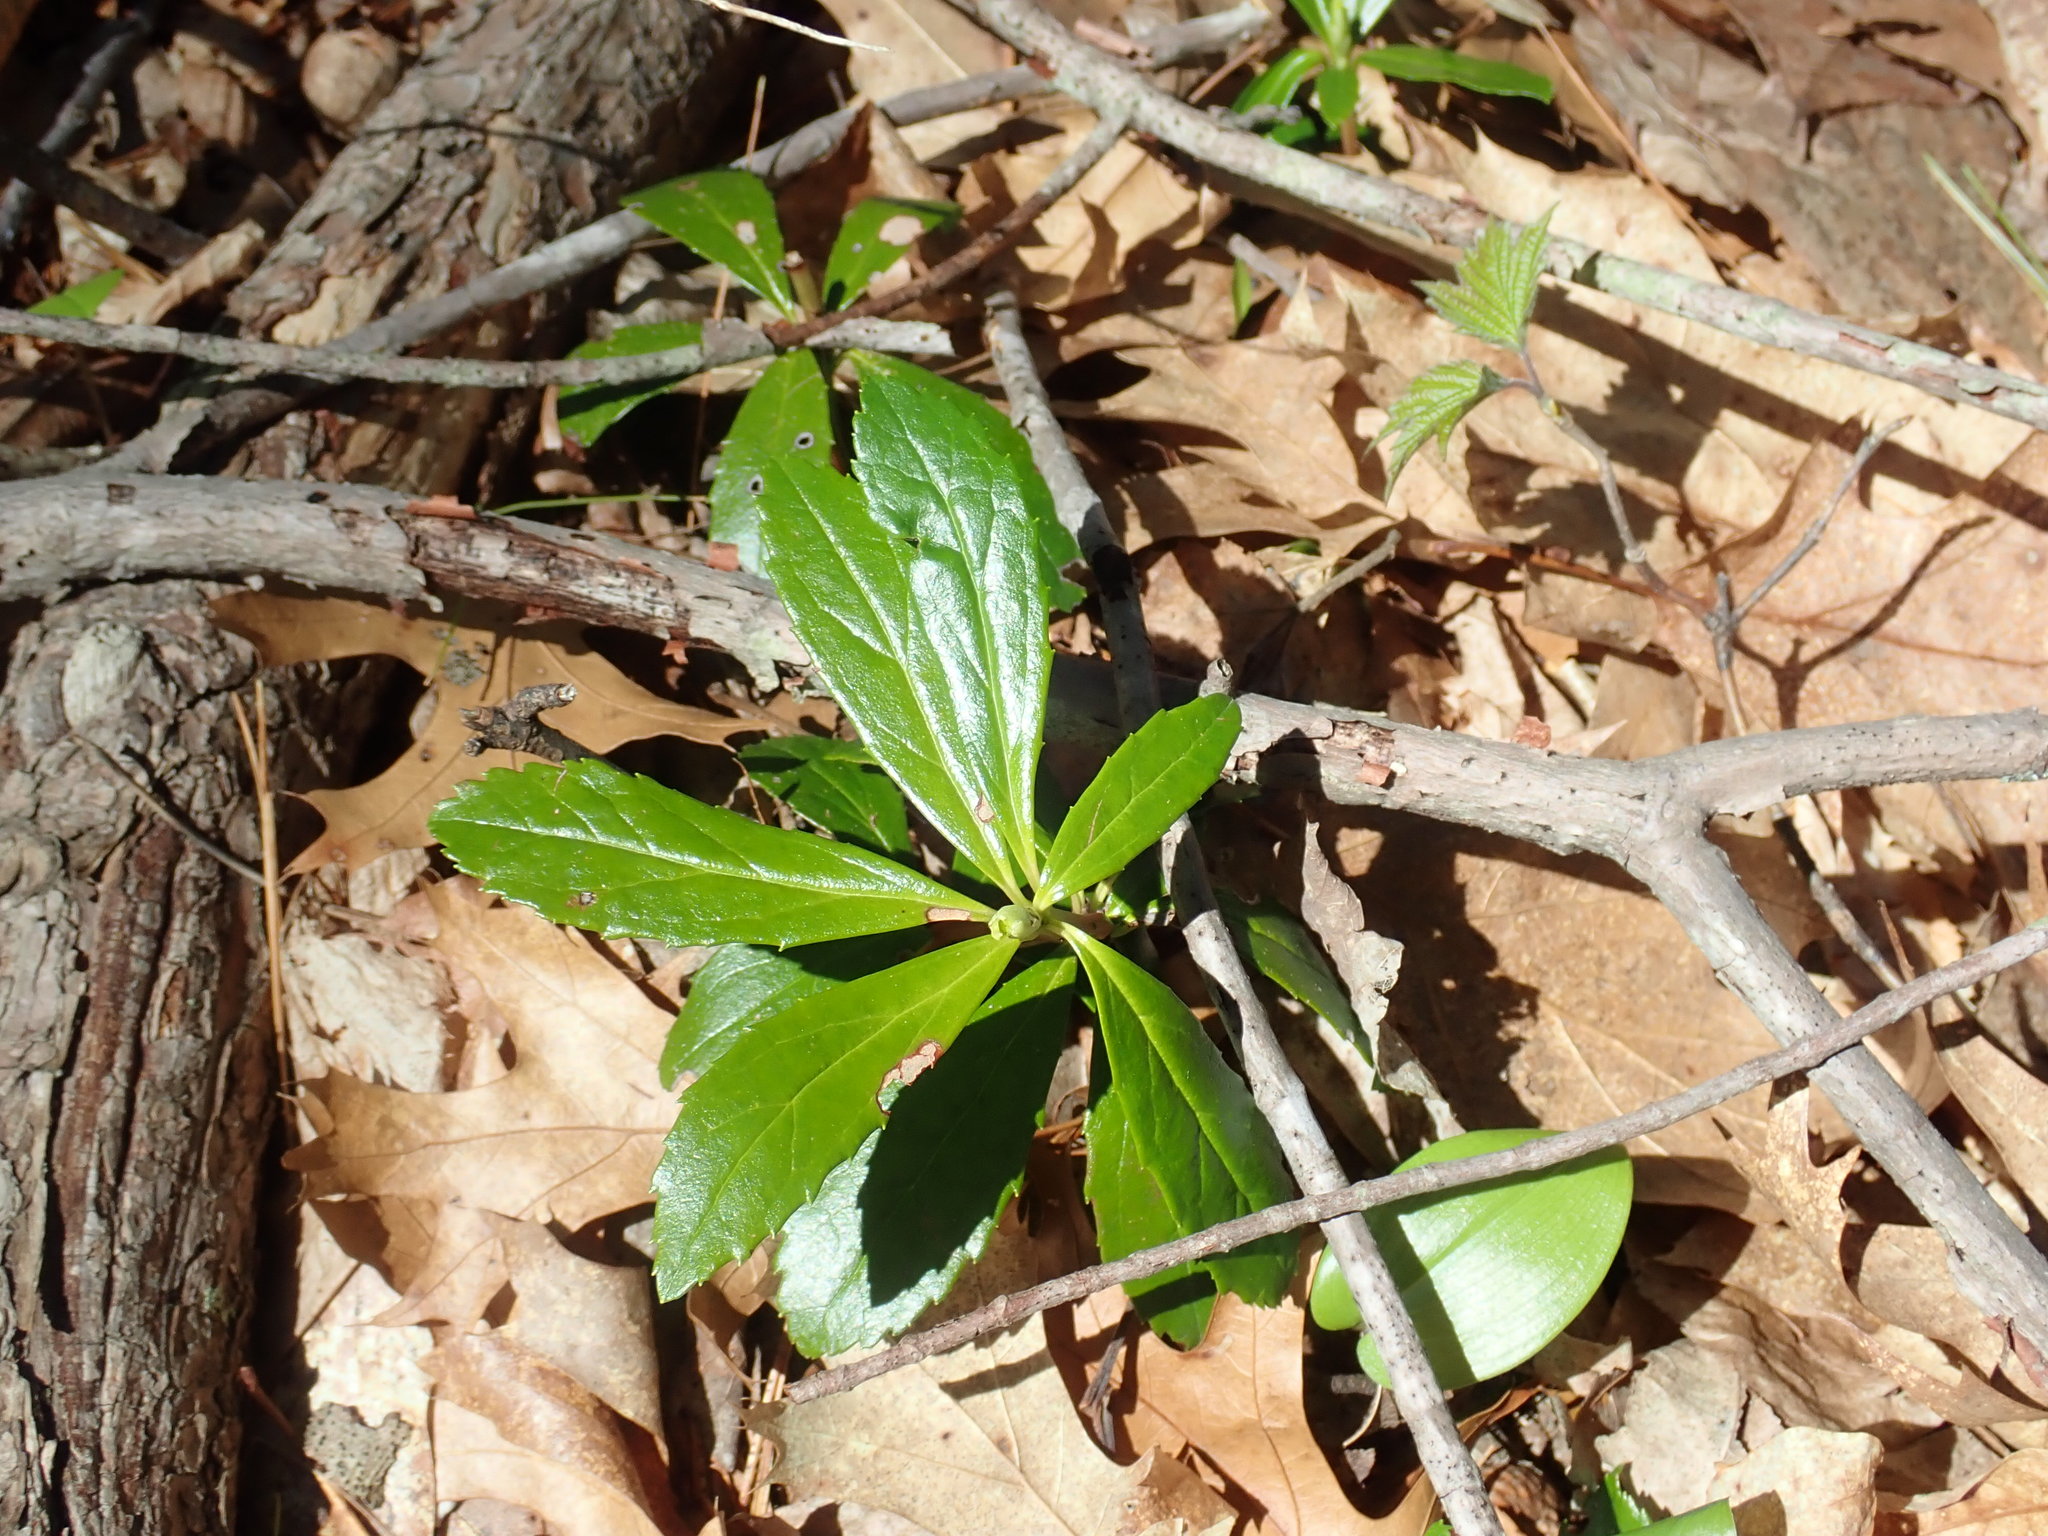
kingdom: Plantae
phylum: Tracheophyta
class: Magnoliopsida
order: Ericales
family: Ericaceae
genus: Chimaphila
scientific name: Chimaphila umbellata
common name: Pipsissewa
